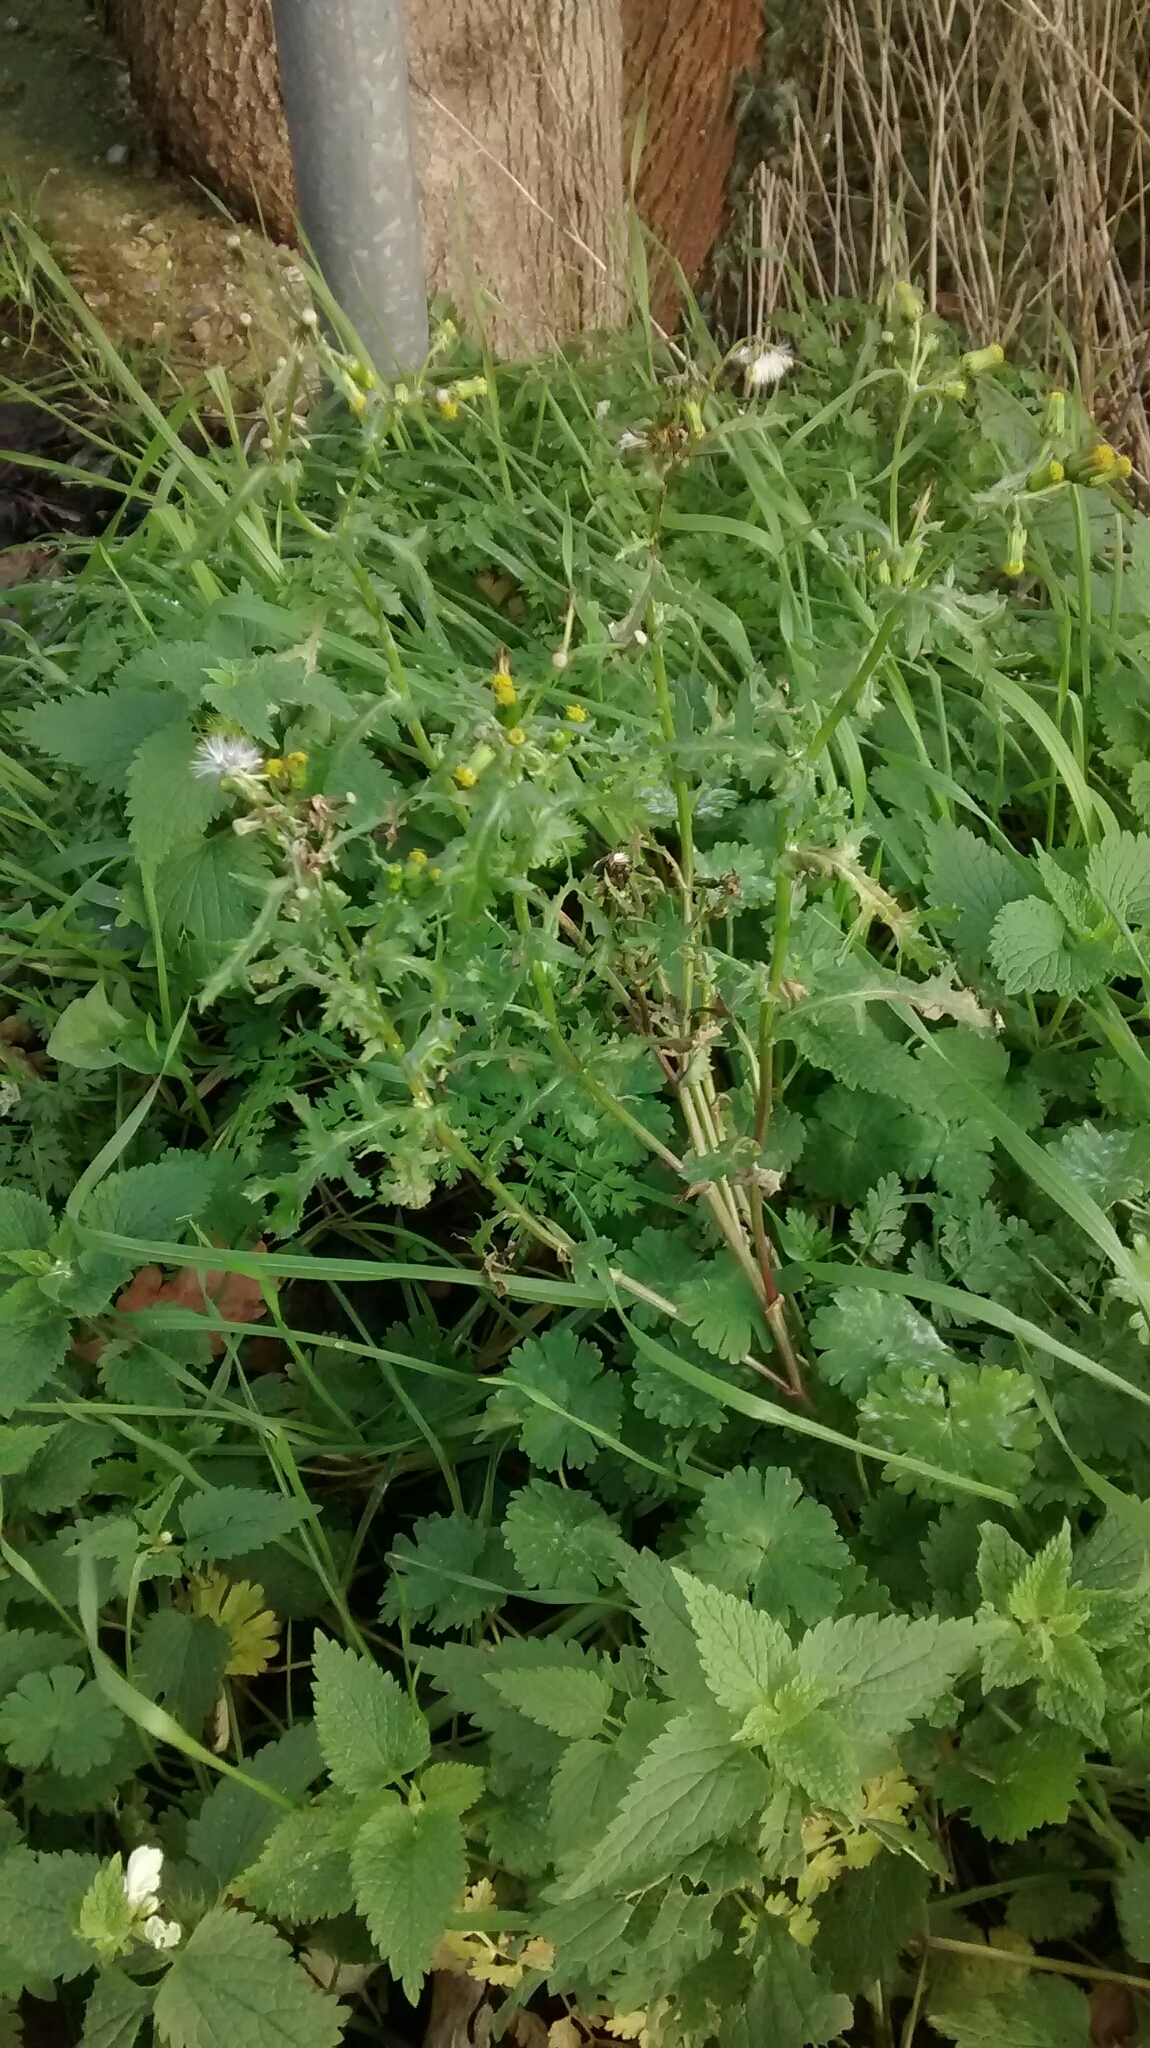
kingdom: Plantae
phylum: Tracheophyta
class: Magnoliopsida
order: Asterales
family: Asteraceae
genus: Senecio
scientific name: Senecio vulgaris
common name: Old-man-in-the-spring
